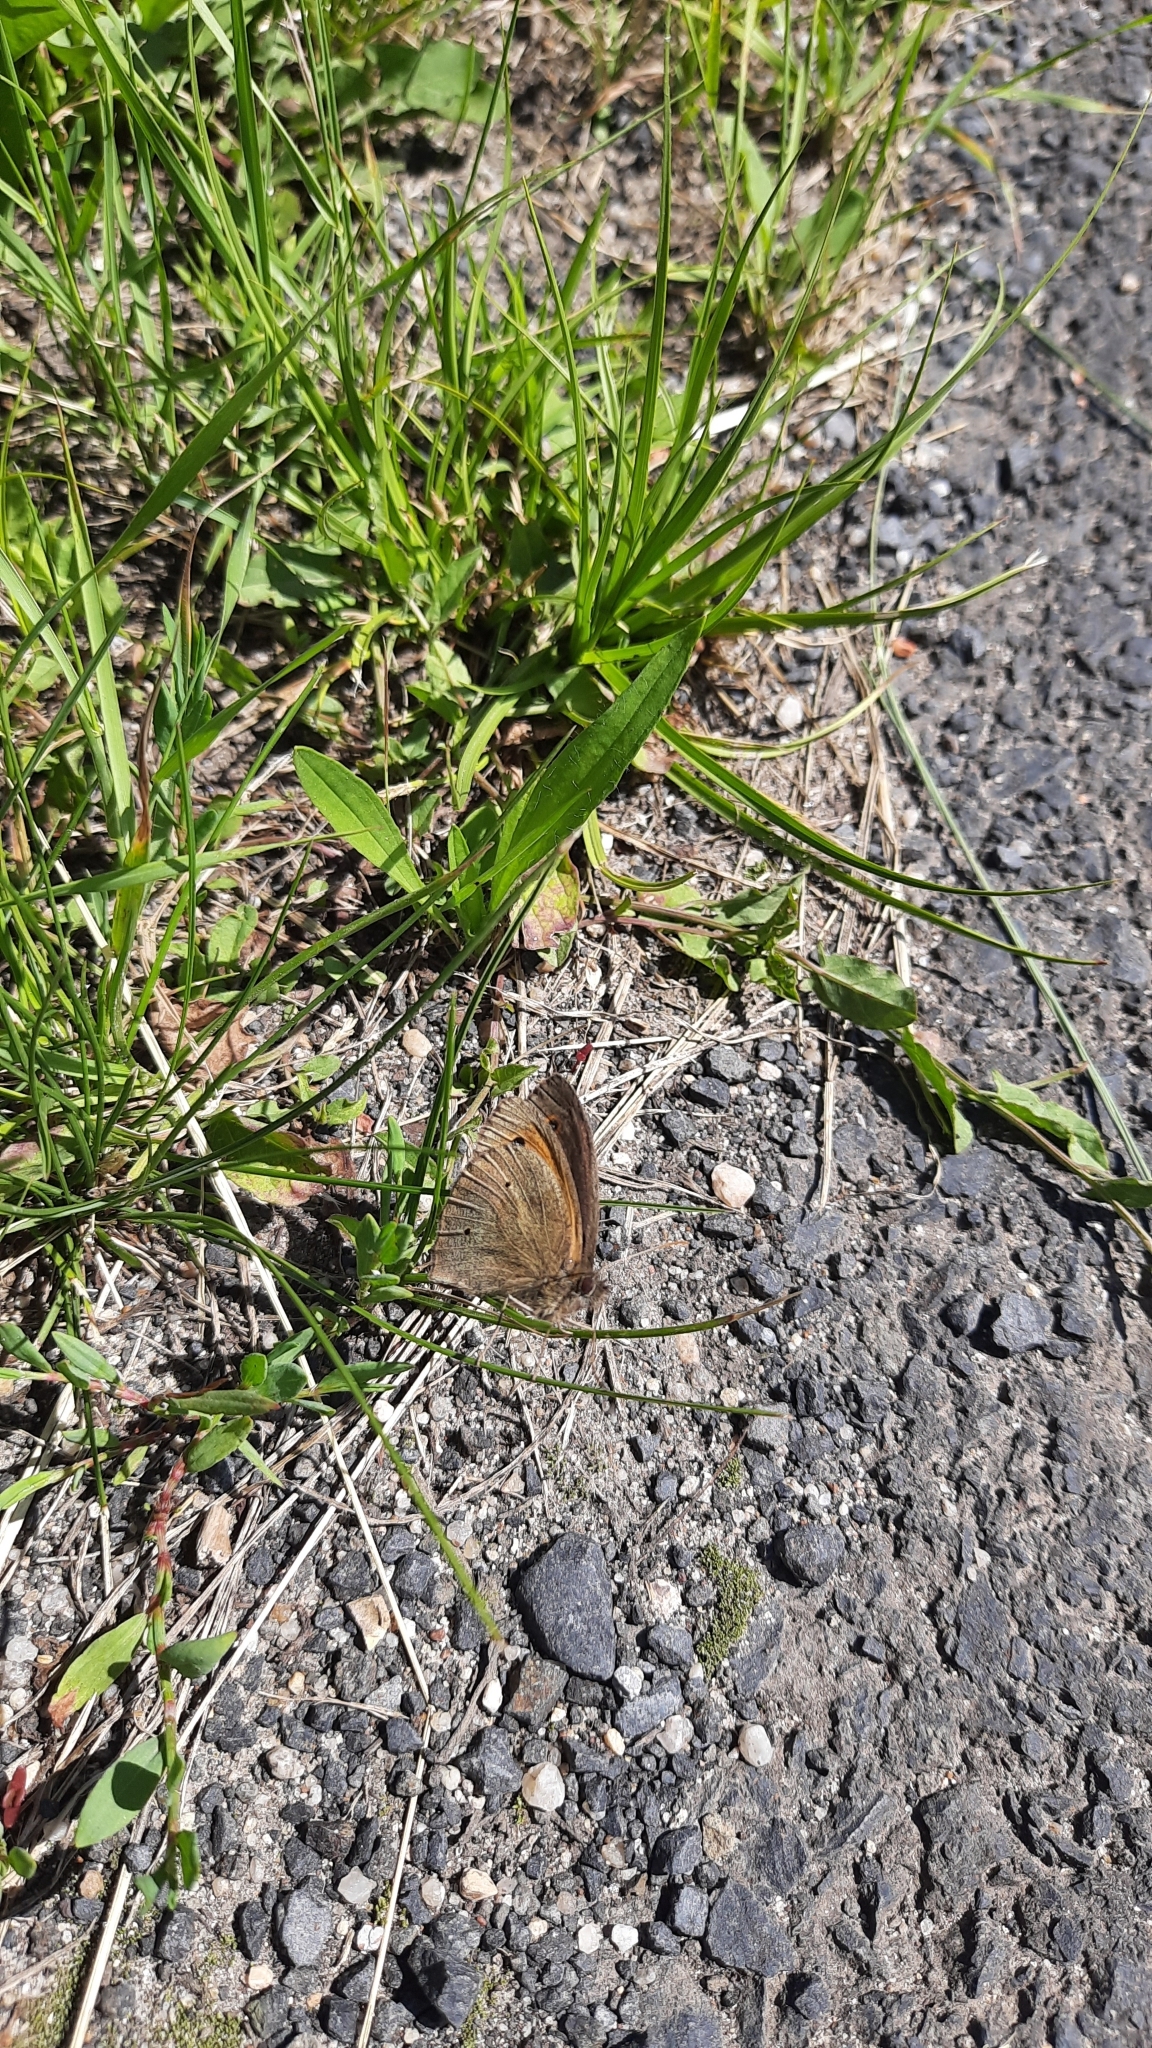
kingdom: Animalia
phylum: Arthropoda
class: Insecta
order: Lepidoptera
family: Nymphalidae
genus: Maniola
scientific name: Maniola jurtina
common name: Meadow brown
